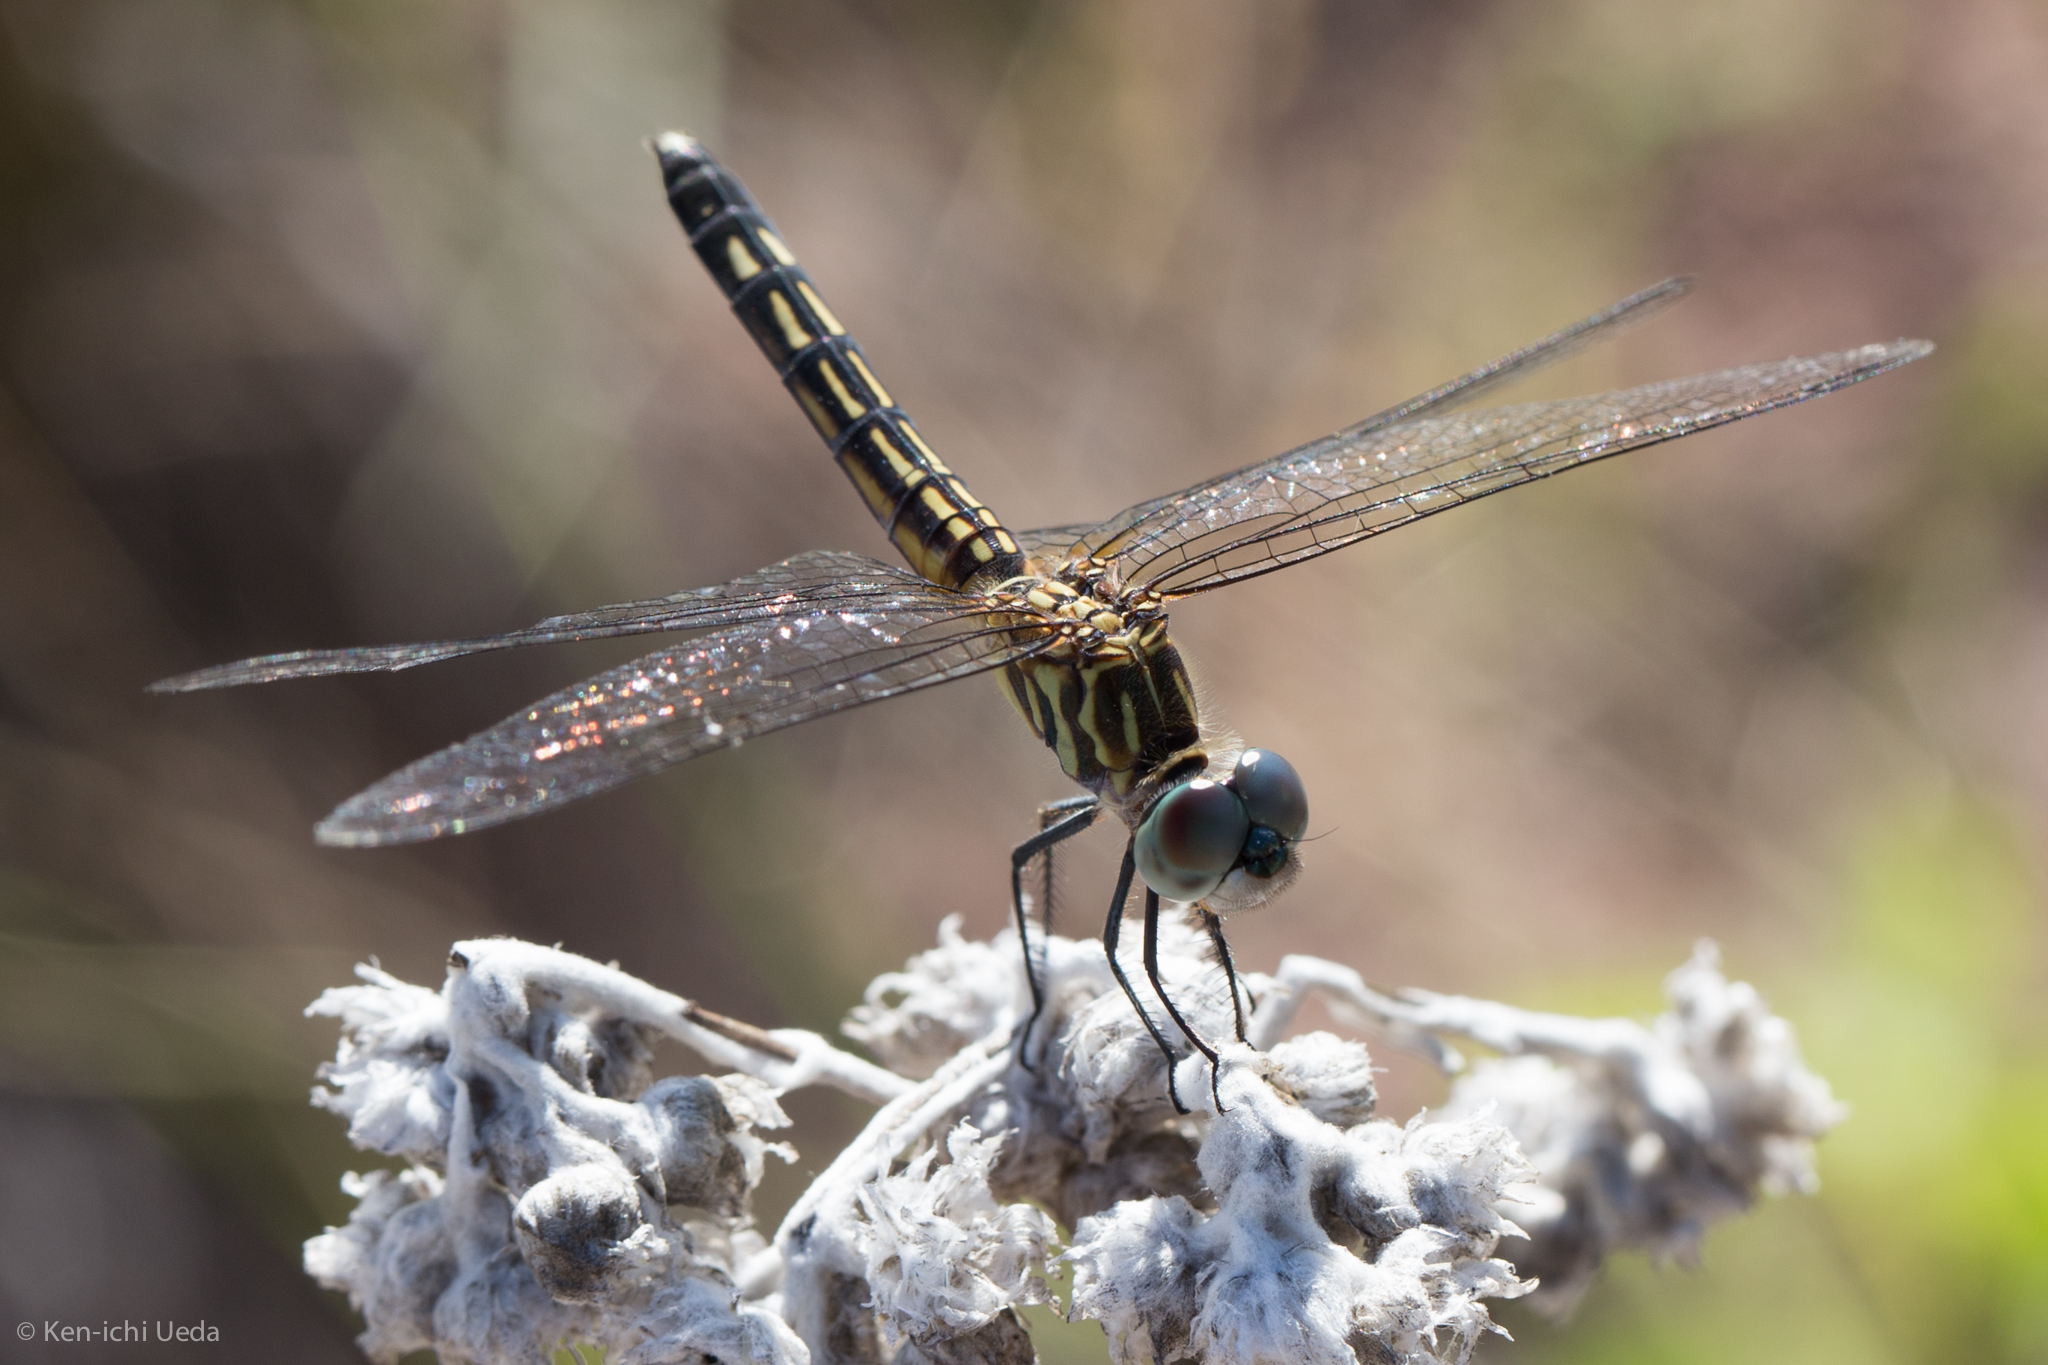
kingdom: Animalia
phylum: Arthropoda
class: Insecta
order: Odonata
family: Libellulidae
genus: Pachydiplax
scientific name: Pachydiplax longipennis
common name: Blue dasher
